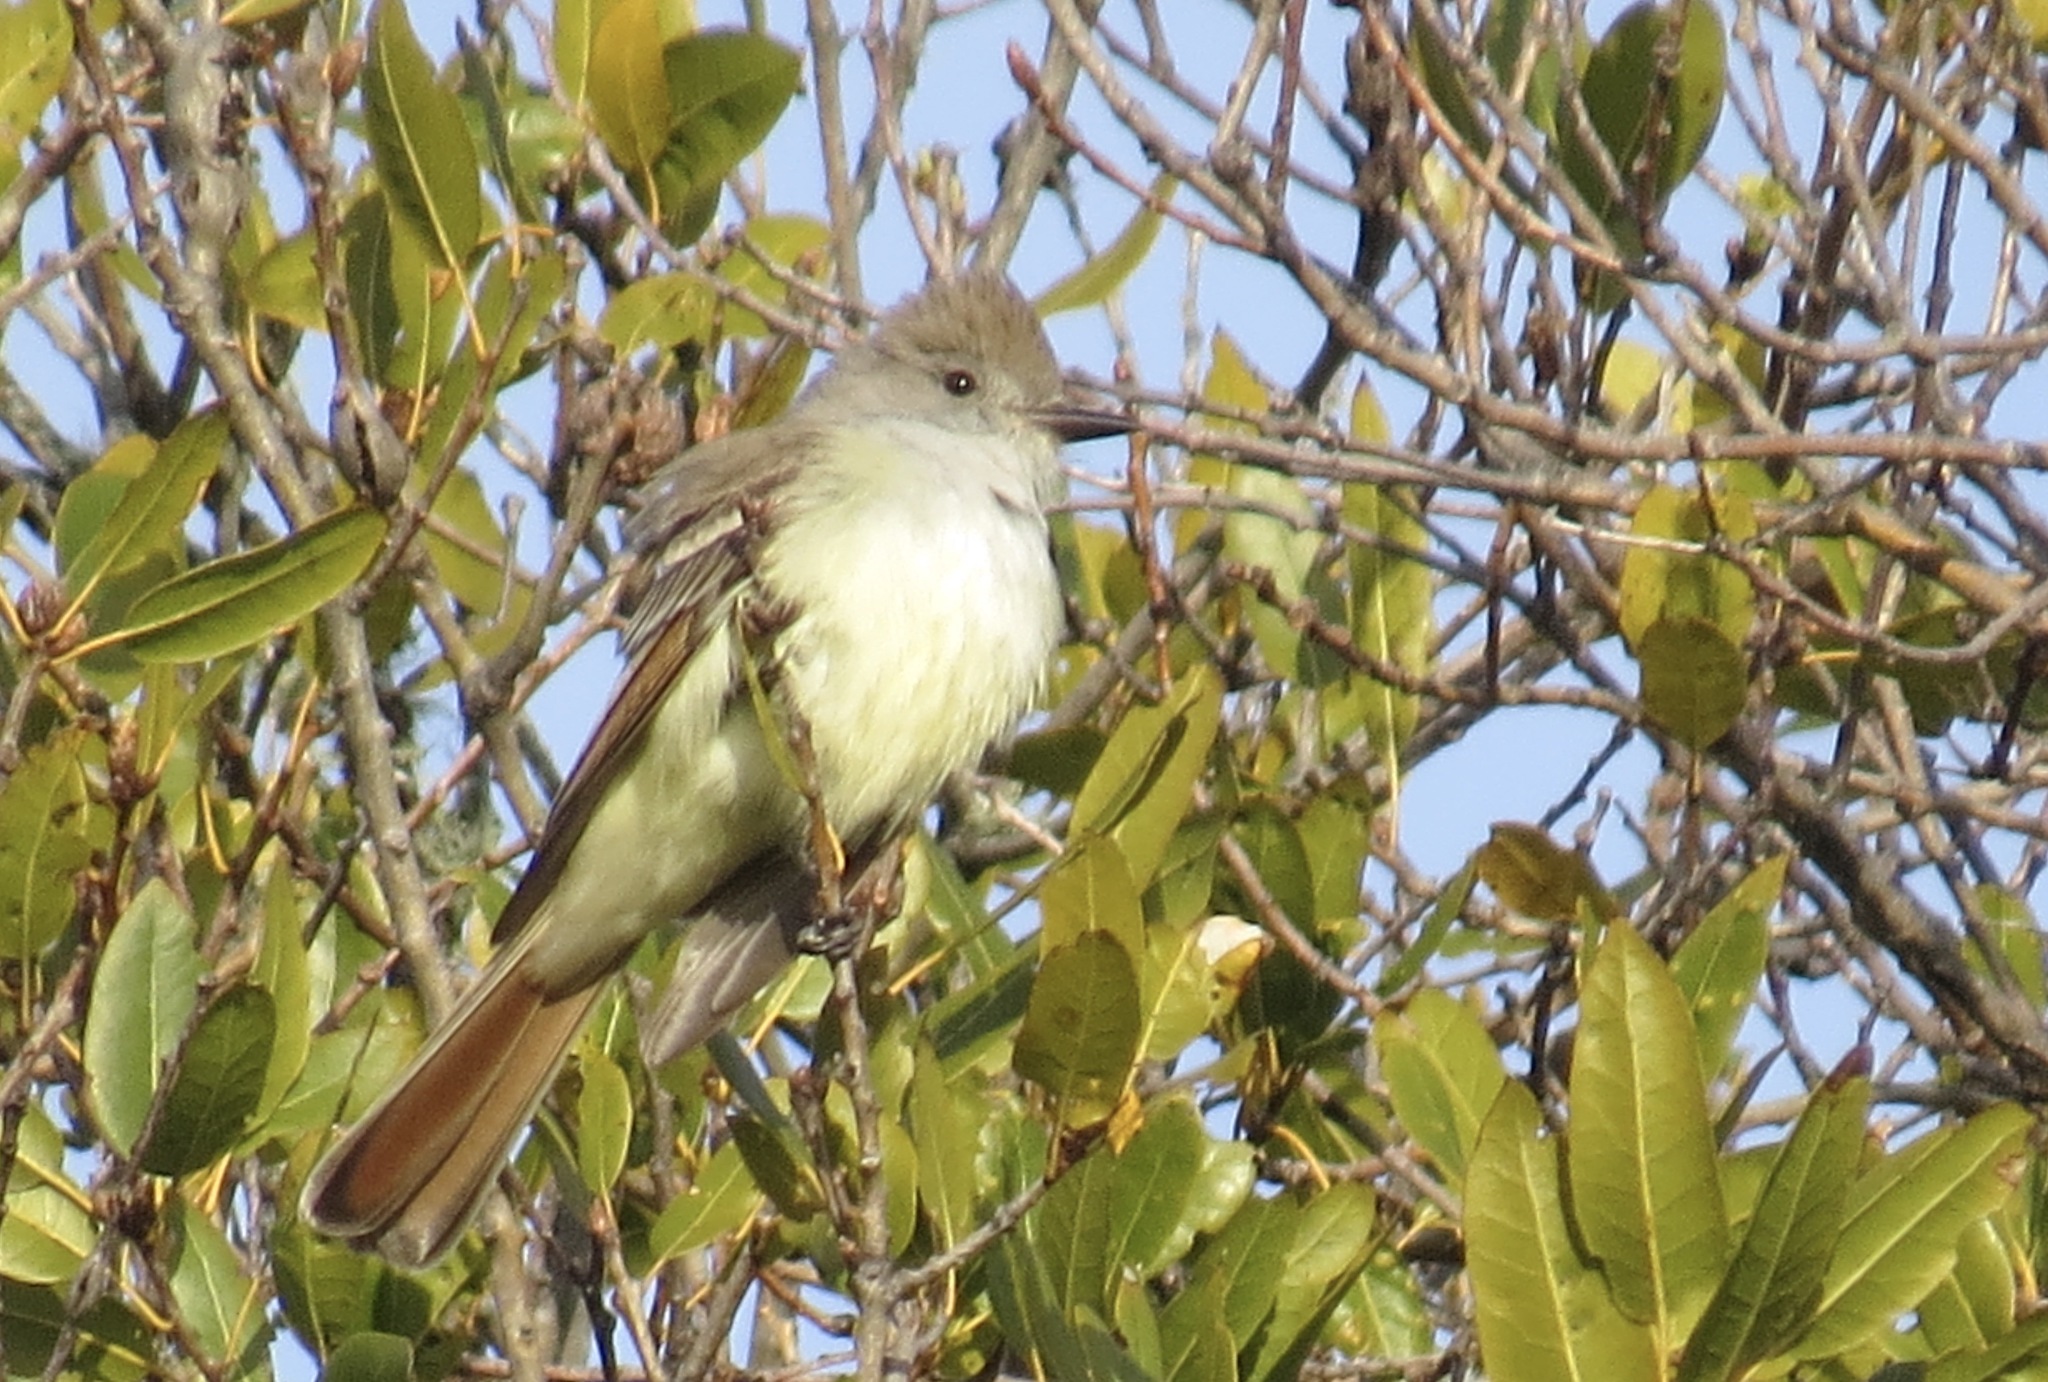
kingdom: Animalia
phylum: Chordata
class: Aves
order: Passeriformes
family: Tyrannidae
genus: Myiarchus
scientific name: Myiarchus cinerascens
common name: Ash-throated flycatcher
